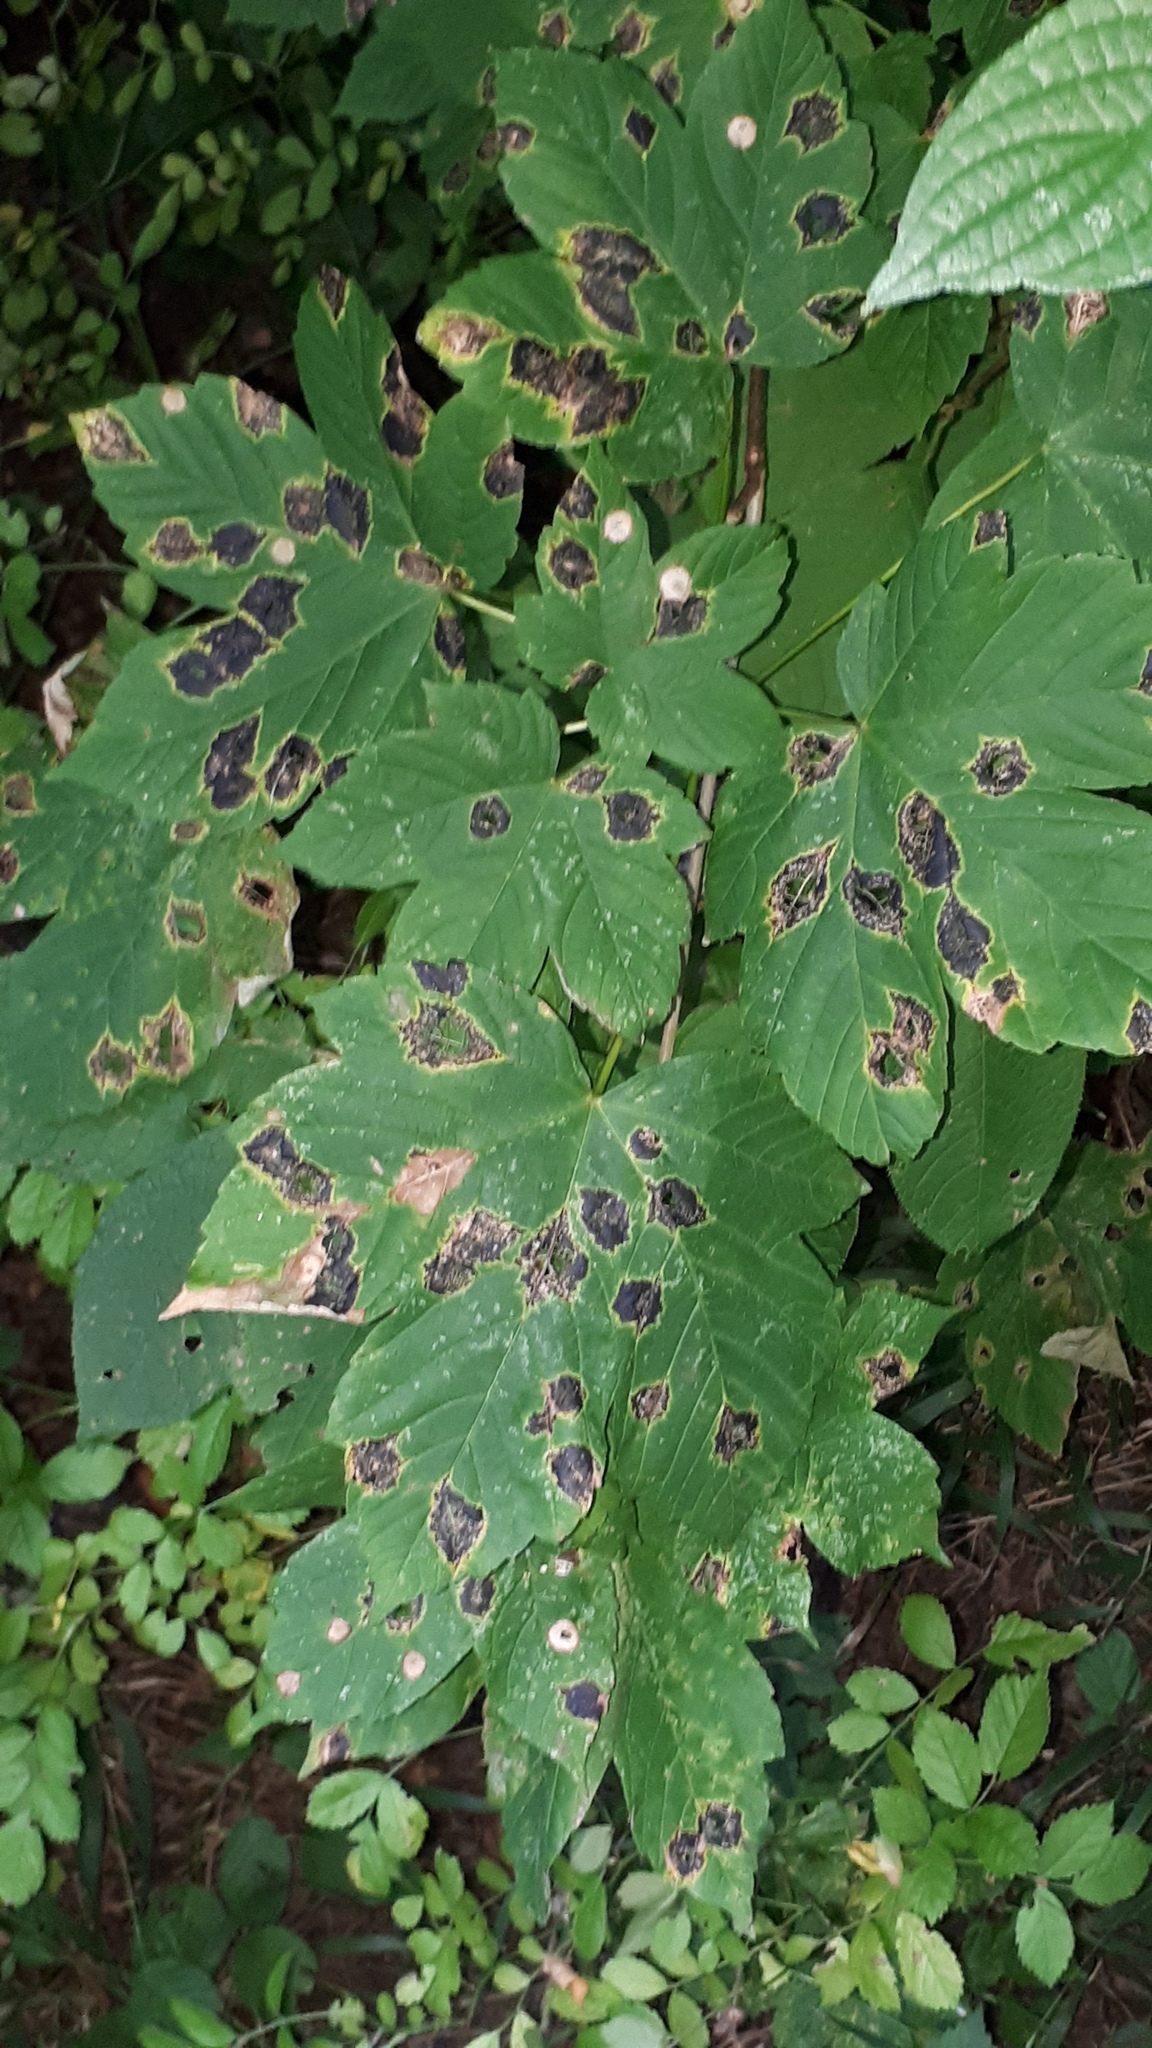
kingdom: Fungi
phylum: Ascomycota
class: Leotiomycetes
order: Rhytismatales
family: Rhytismataceae
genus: Rhytisma
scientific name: Rhytisma acerinum
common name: European tar spot
